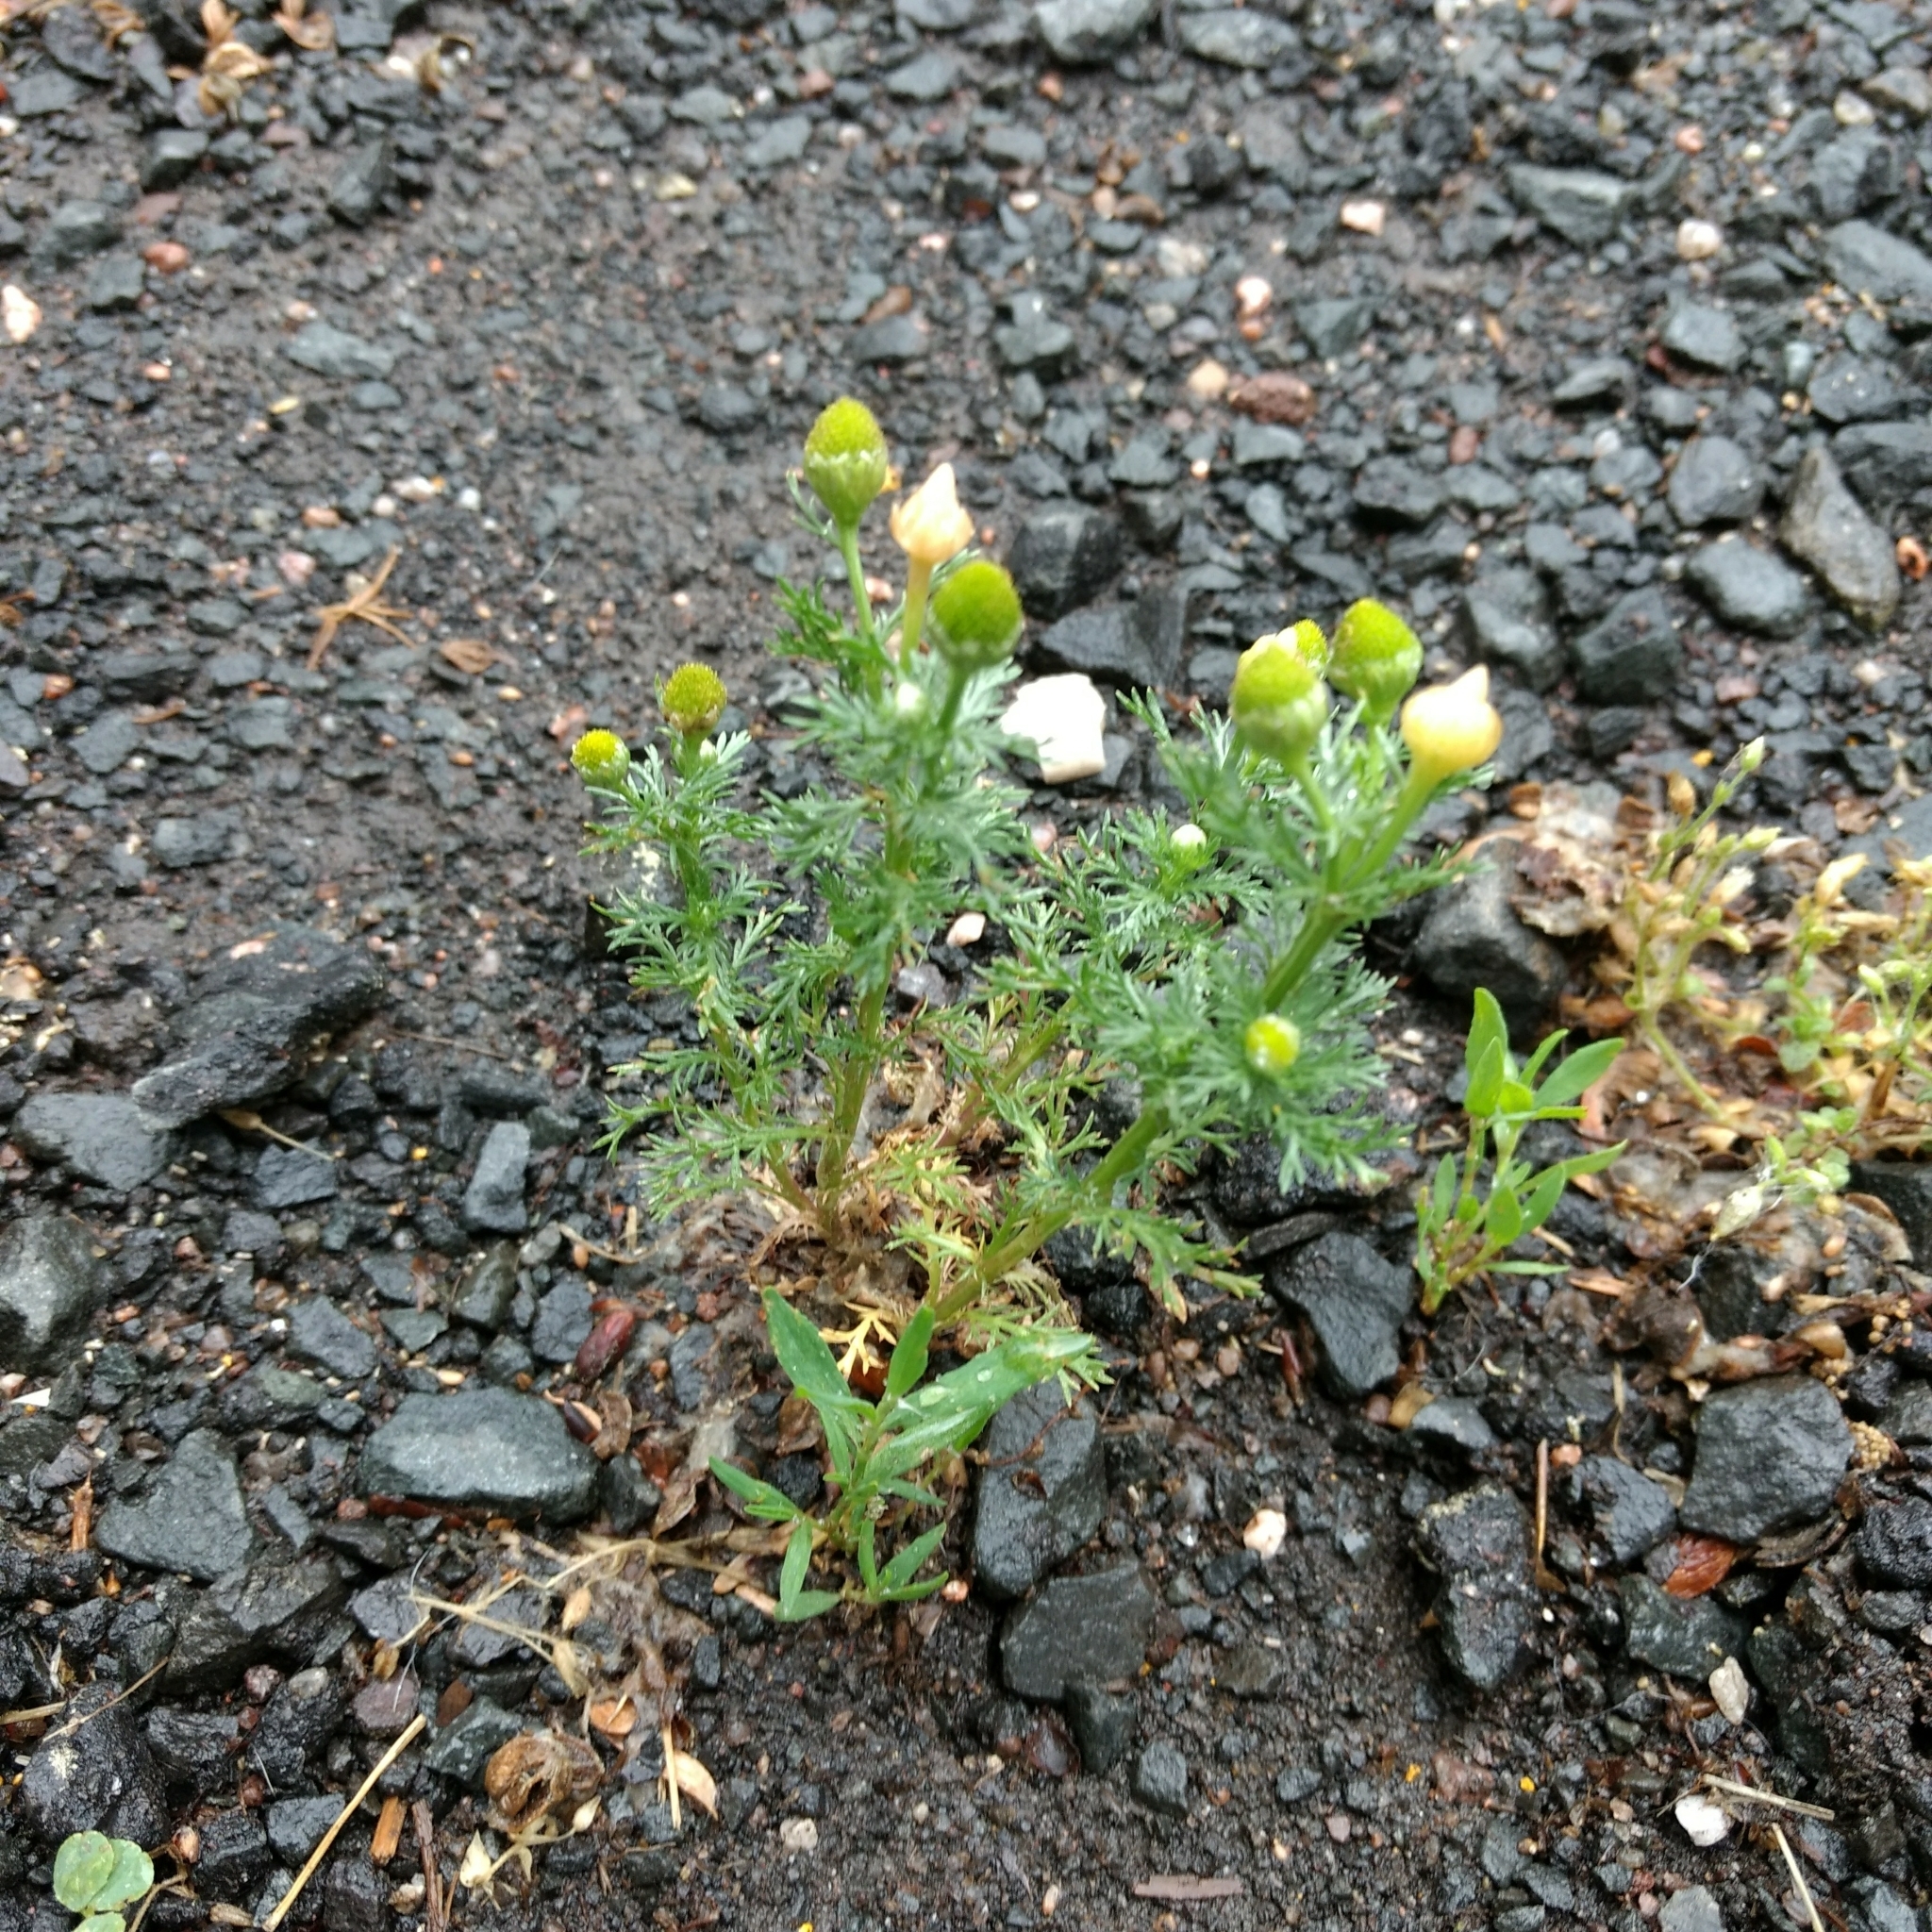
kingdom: Plantae
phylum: Tracheophyta
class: Magnoliopsida
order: Asterales
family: Asteraceae
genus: Matricaria
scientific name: Matricaria discoidea
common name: Disc mayweed
